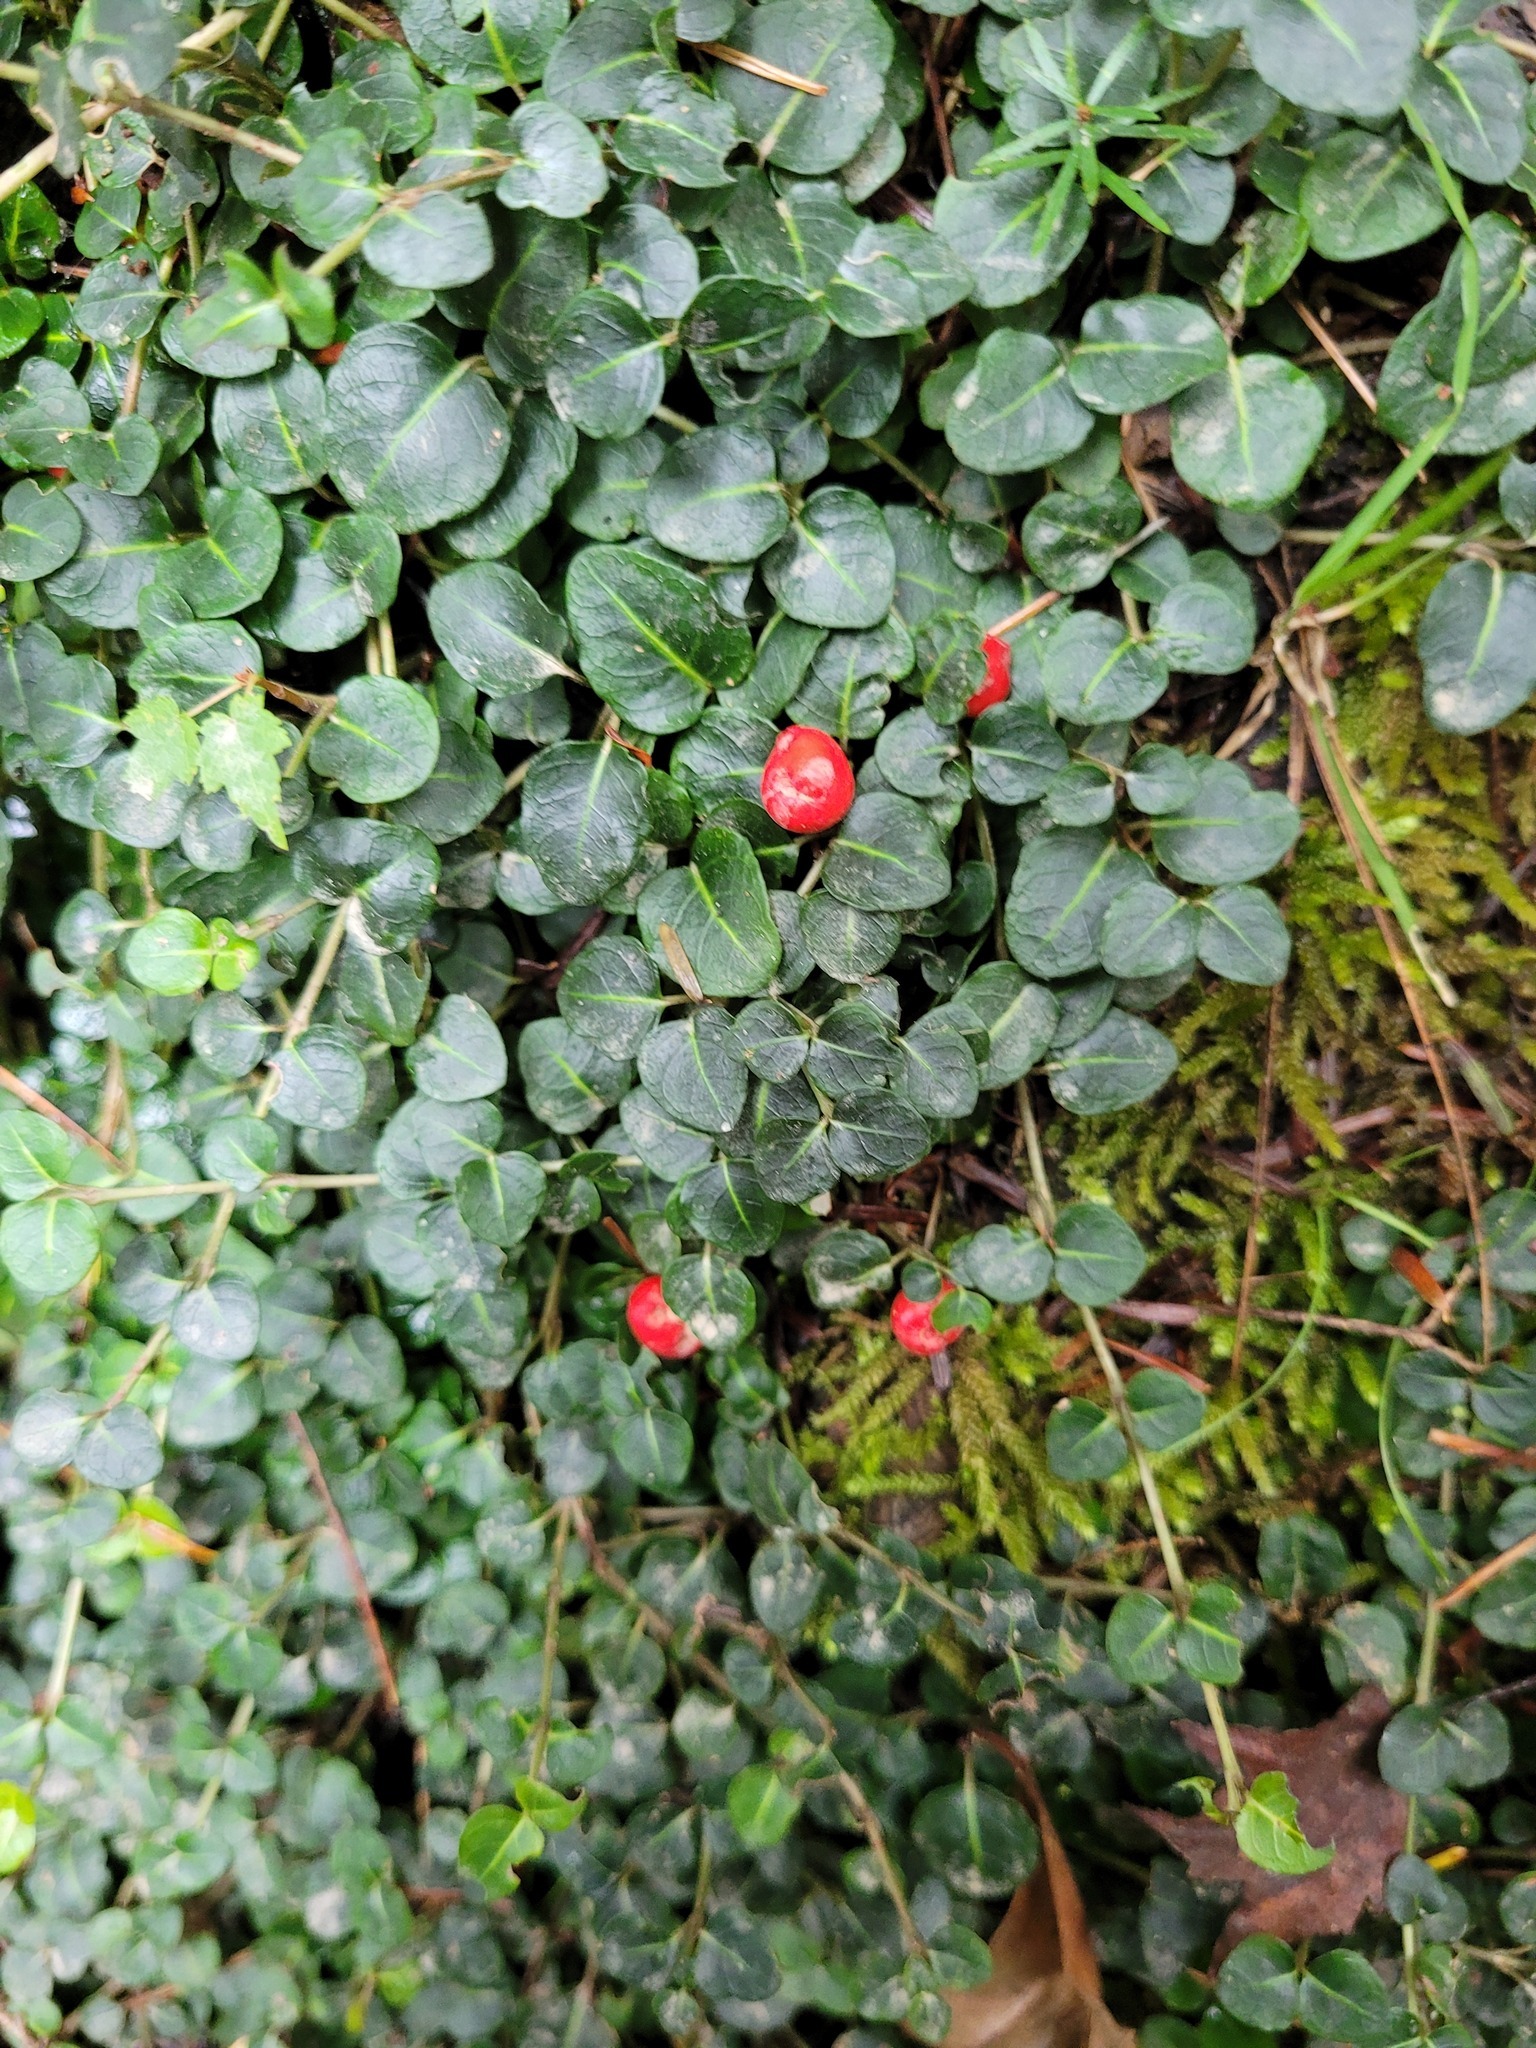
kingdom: Plantae
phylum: Tracheophyta
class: Magnoliopsida
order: Gentianales
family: Rubiaceae
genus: Mitchella
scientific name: Mitchella repens
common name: Partridge-berry
